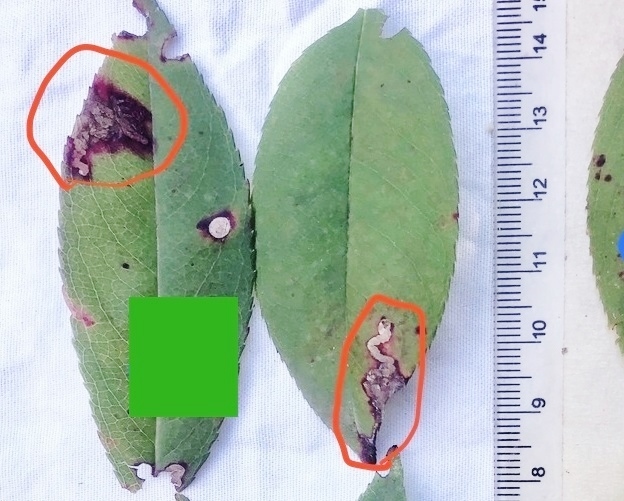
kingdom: Animalia
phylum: Arthropoda
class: Insecta
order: Lepidoptera
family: Nepticulidae
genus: Stigmella
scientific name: Stigmella prunifoliella
